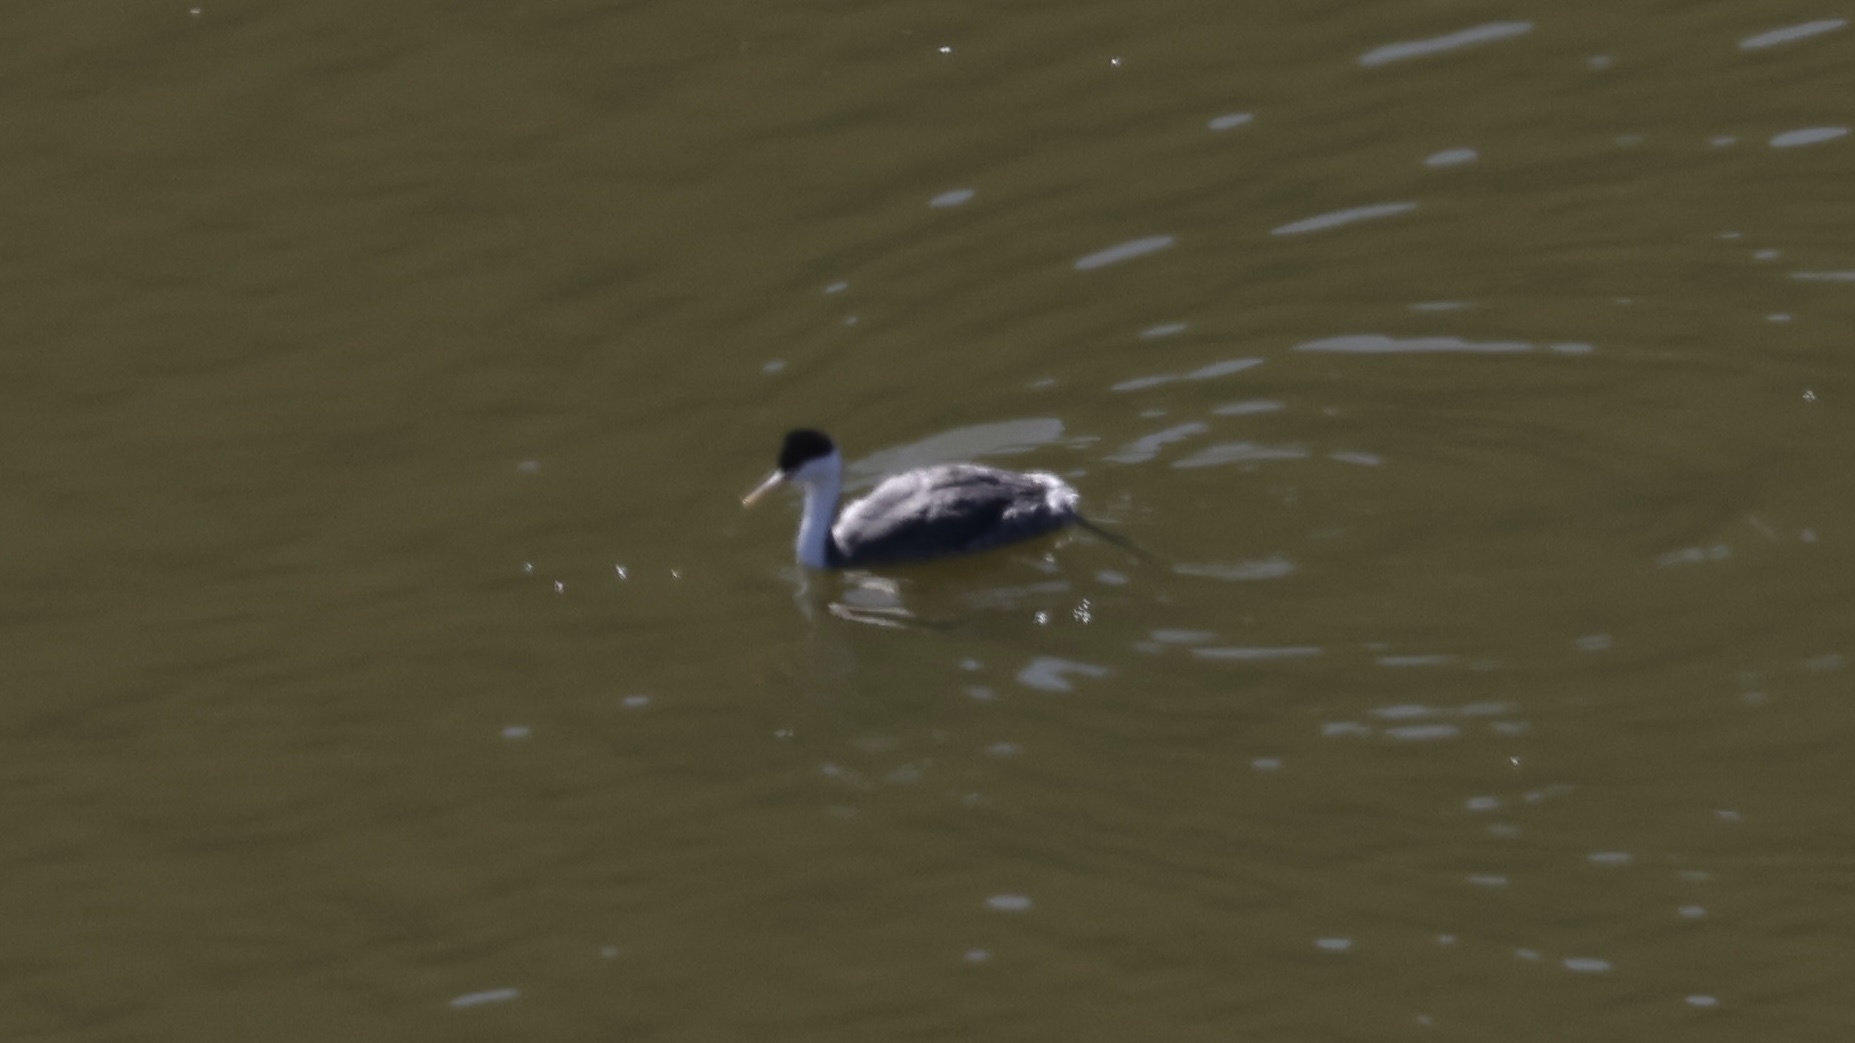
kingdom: Animalia
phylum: Chordata
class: Aves
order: Podicipediformes
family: Podicipedidae
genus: Aechmophorus
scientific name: Aechmophorus occidentalis
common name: Western grebe
